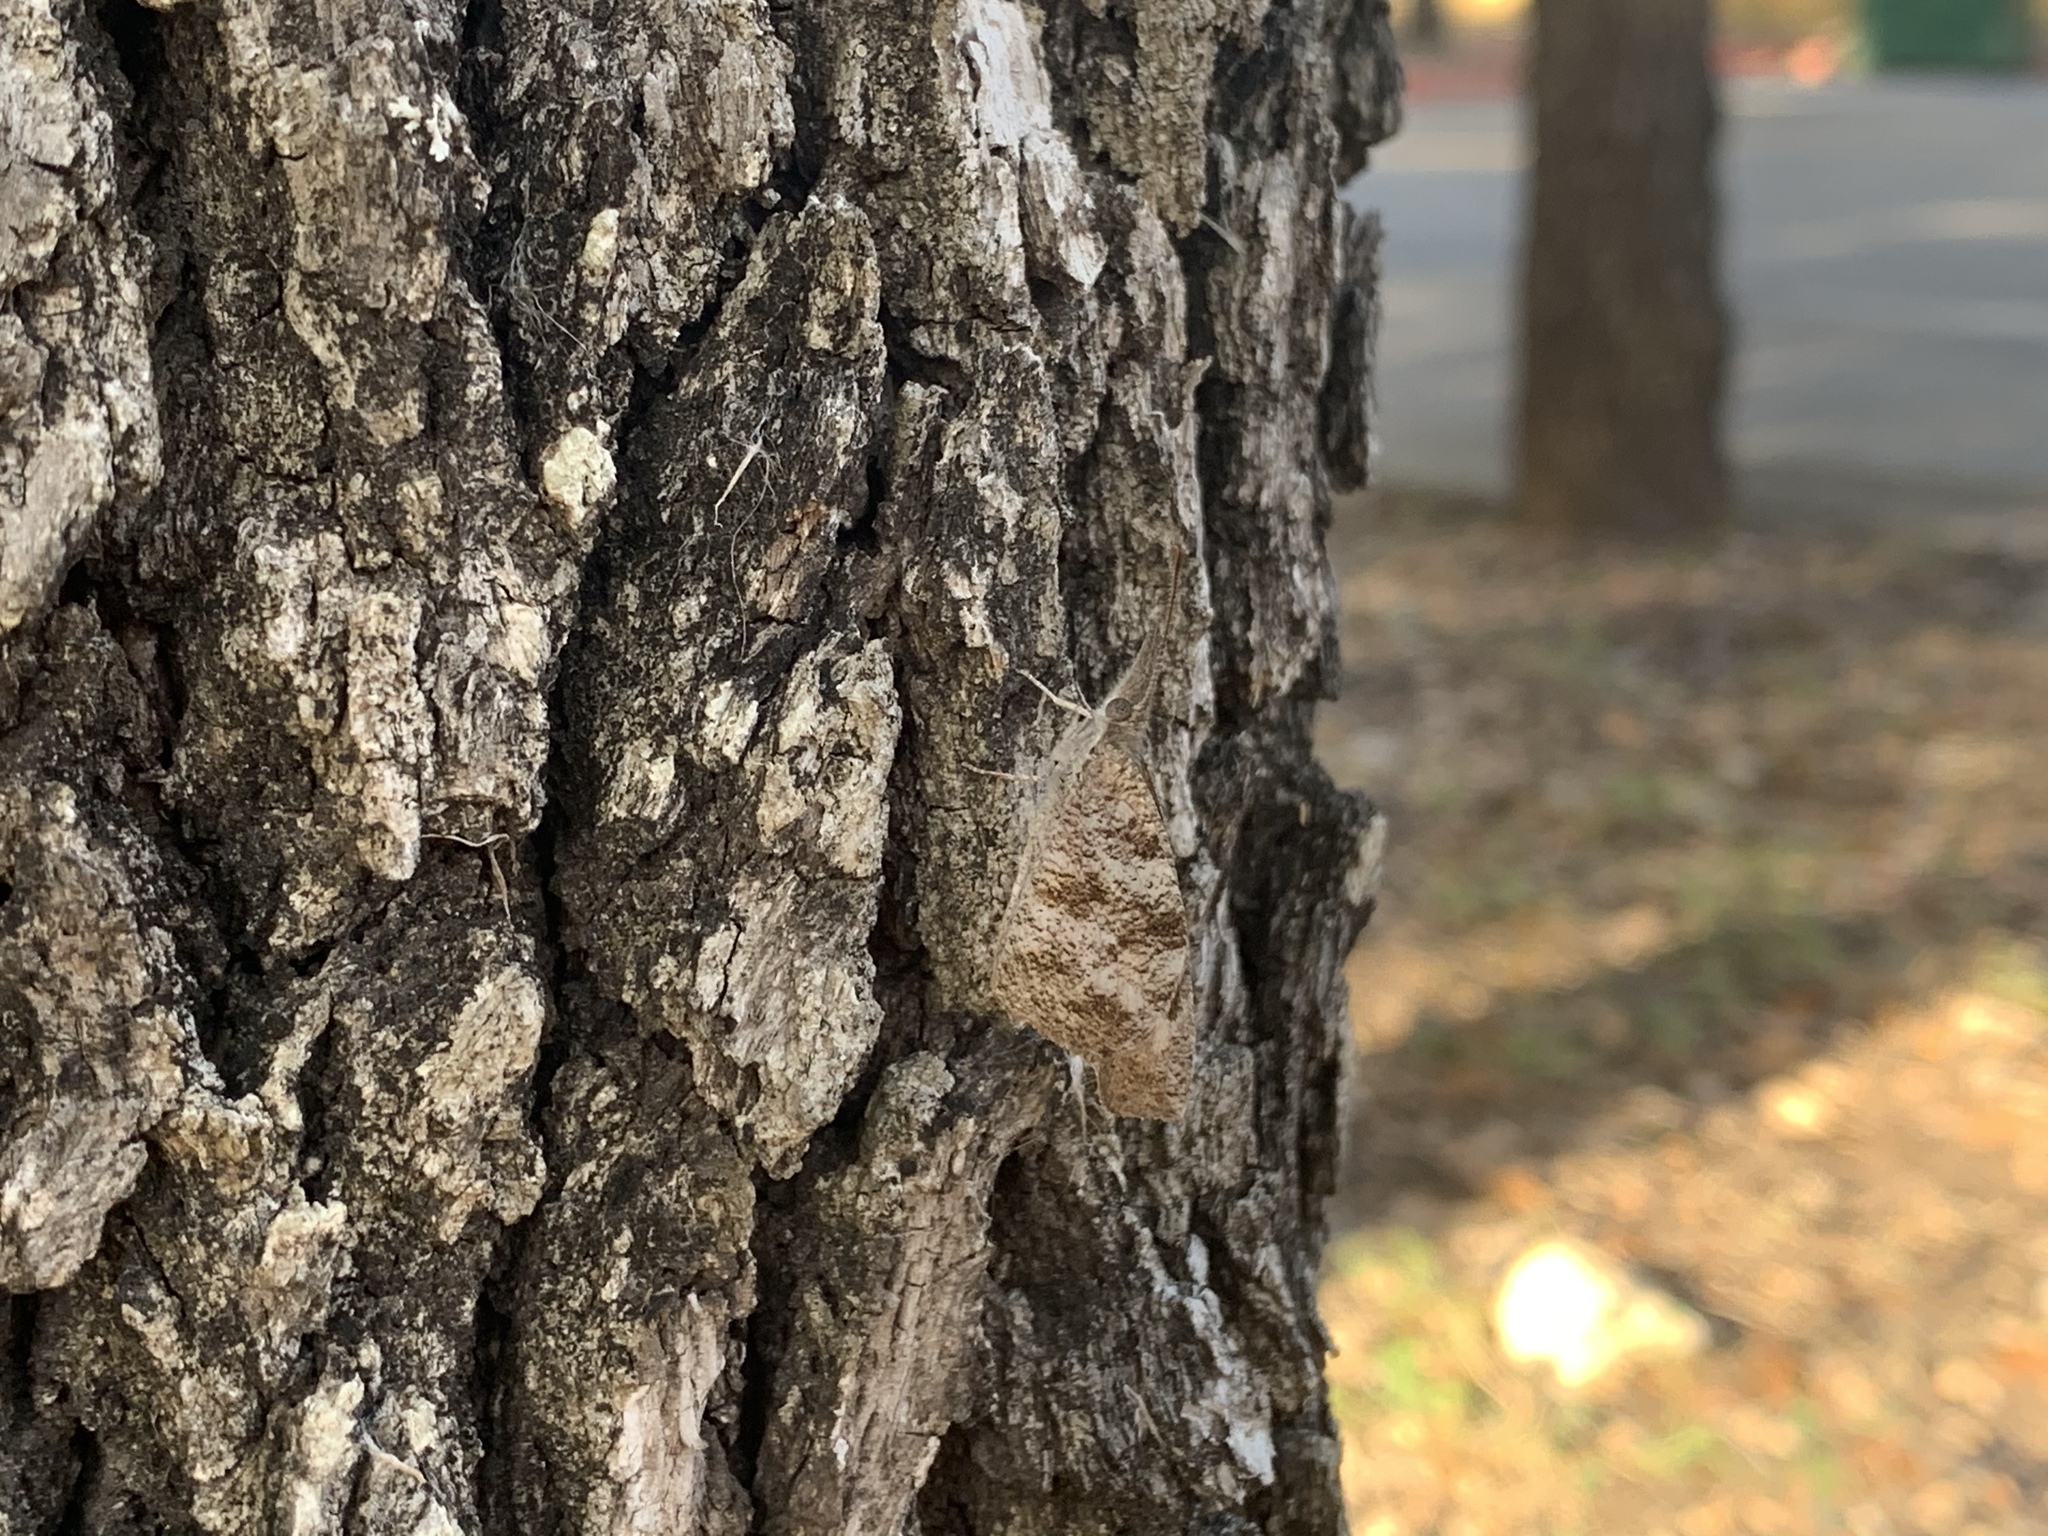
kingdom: Animalia
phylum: Arthropoda
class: Insecta
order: Lepidoptera
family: Nymphalidae
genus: Libytheana
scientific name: Libytheana carinenta
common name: American snout
